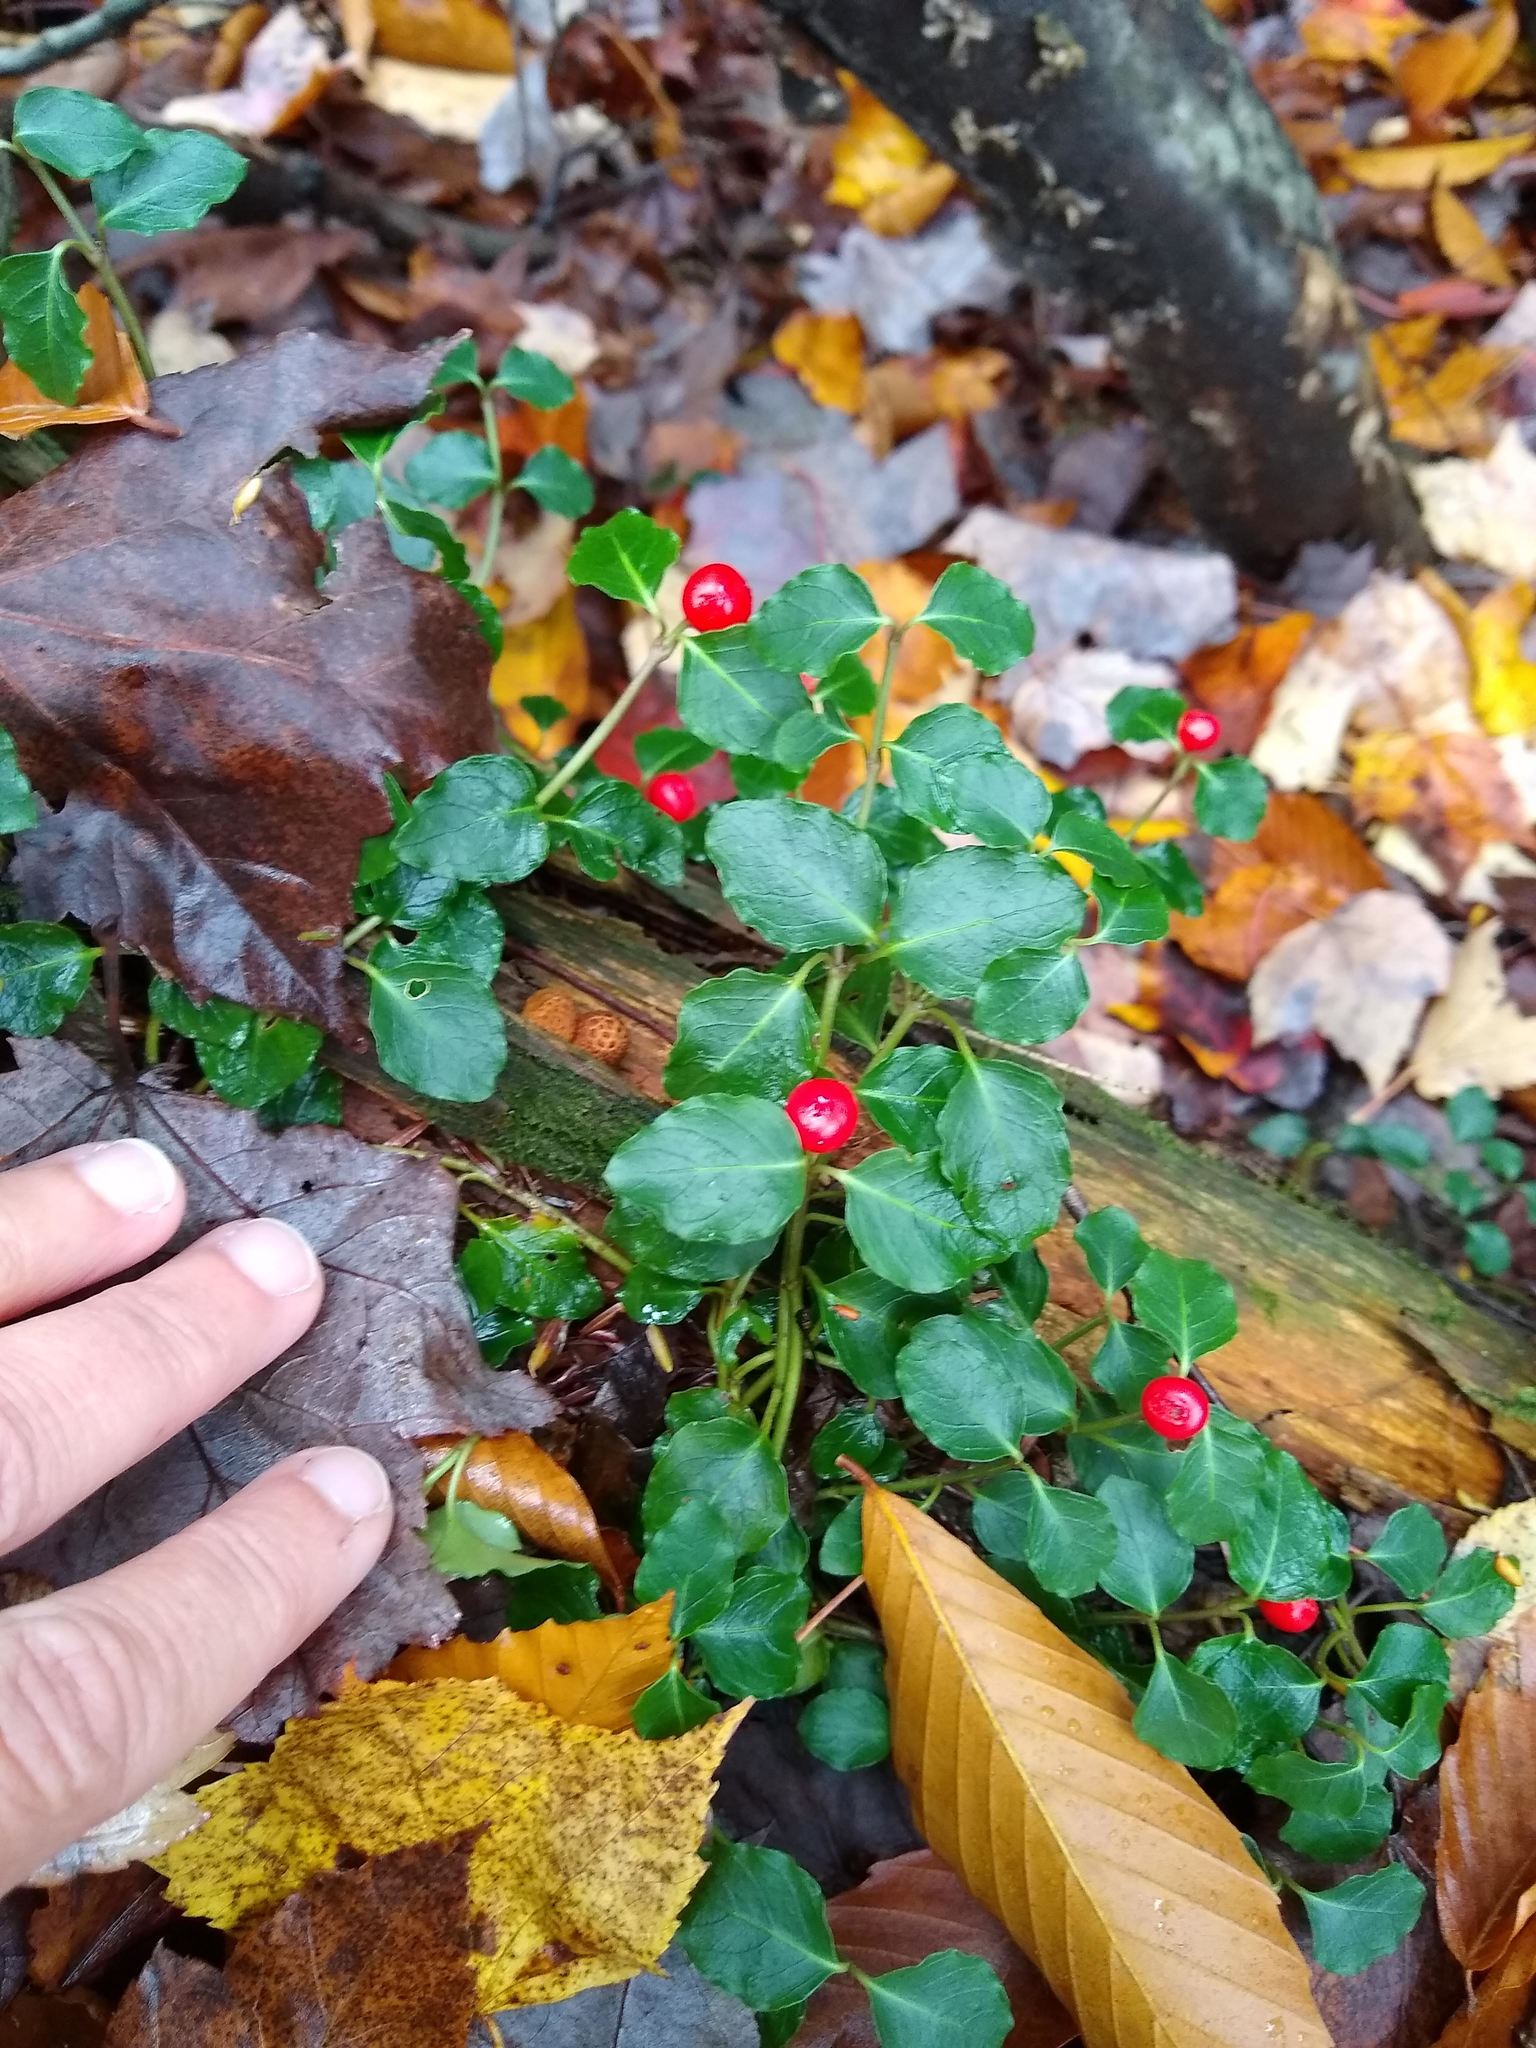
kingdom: Plantae
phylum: Tracheophyta
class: Magnoliopsida
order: Gentianales
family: Rubiaceae
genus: Mitchella
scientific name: Mitchella repens
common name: Partridge-berry
